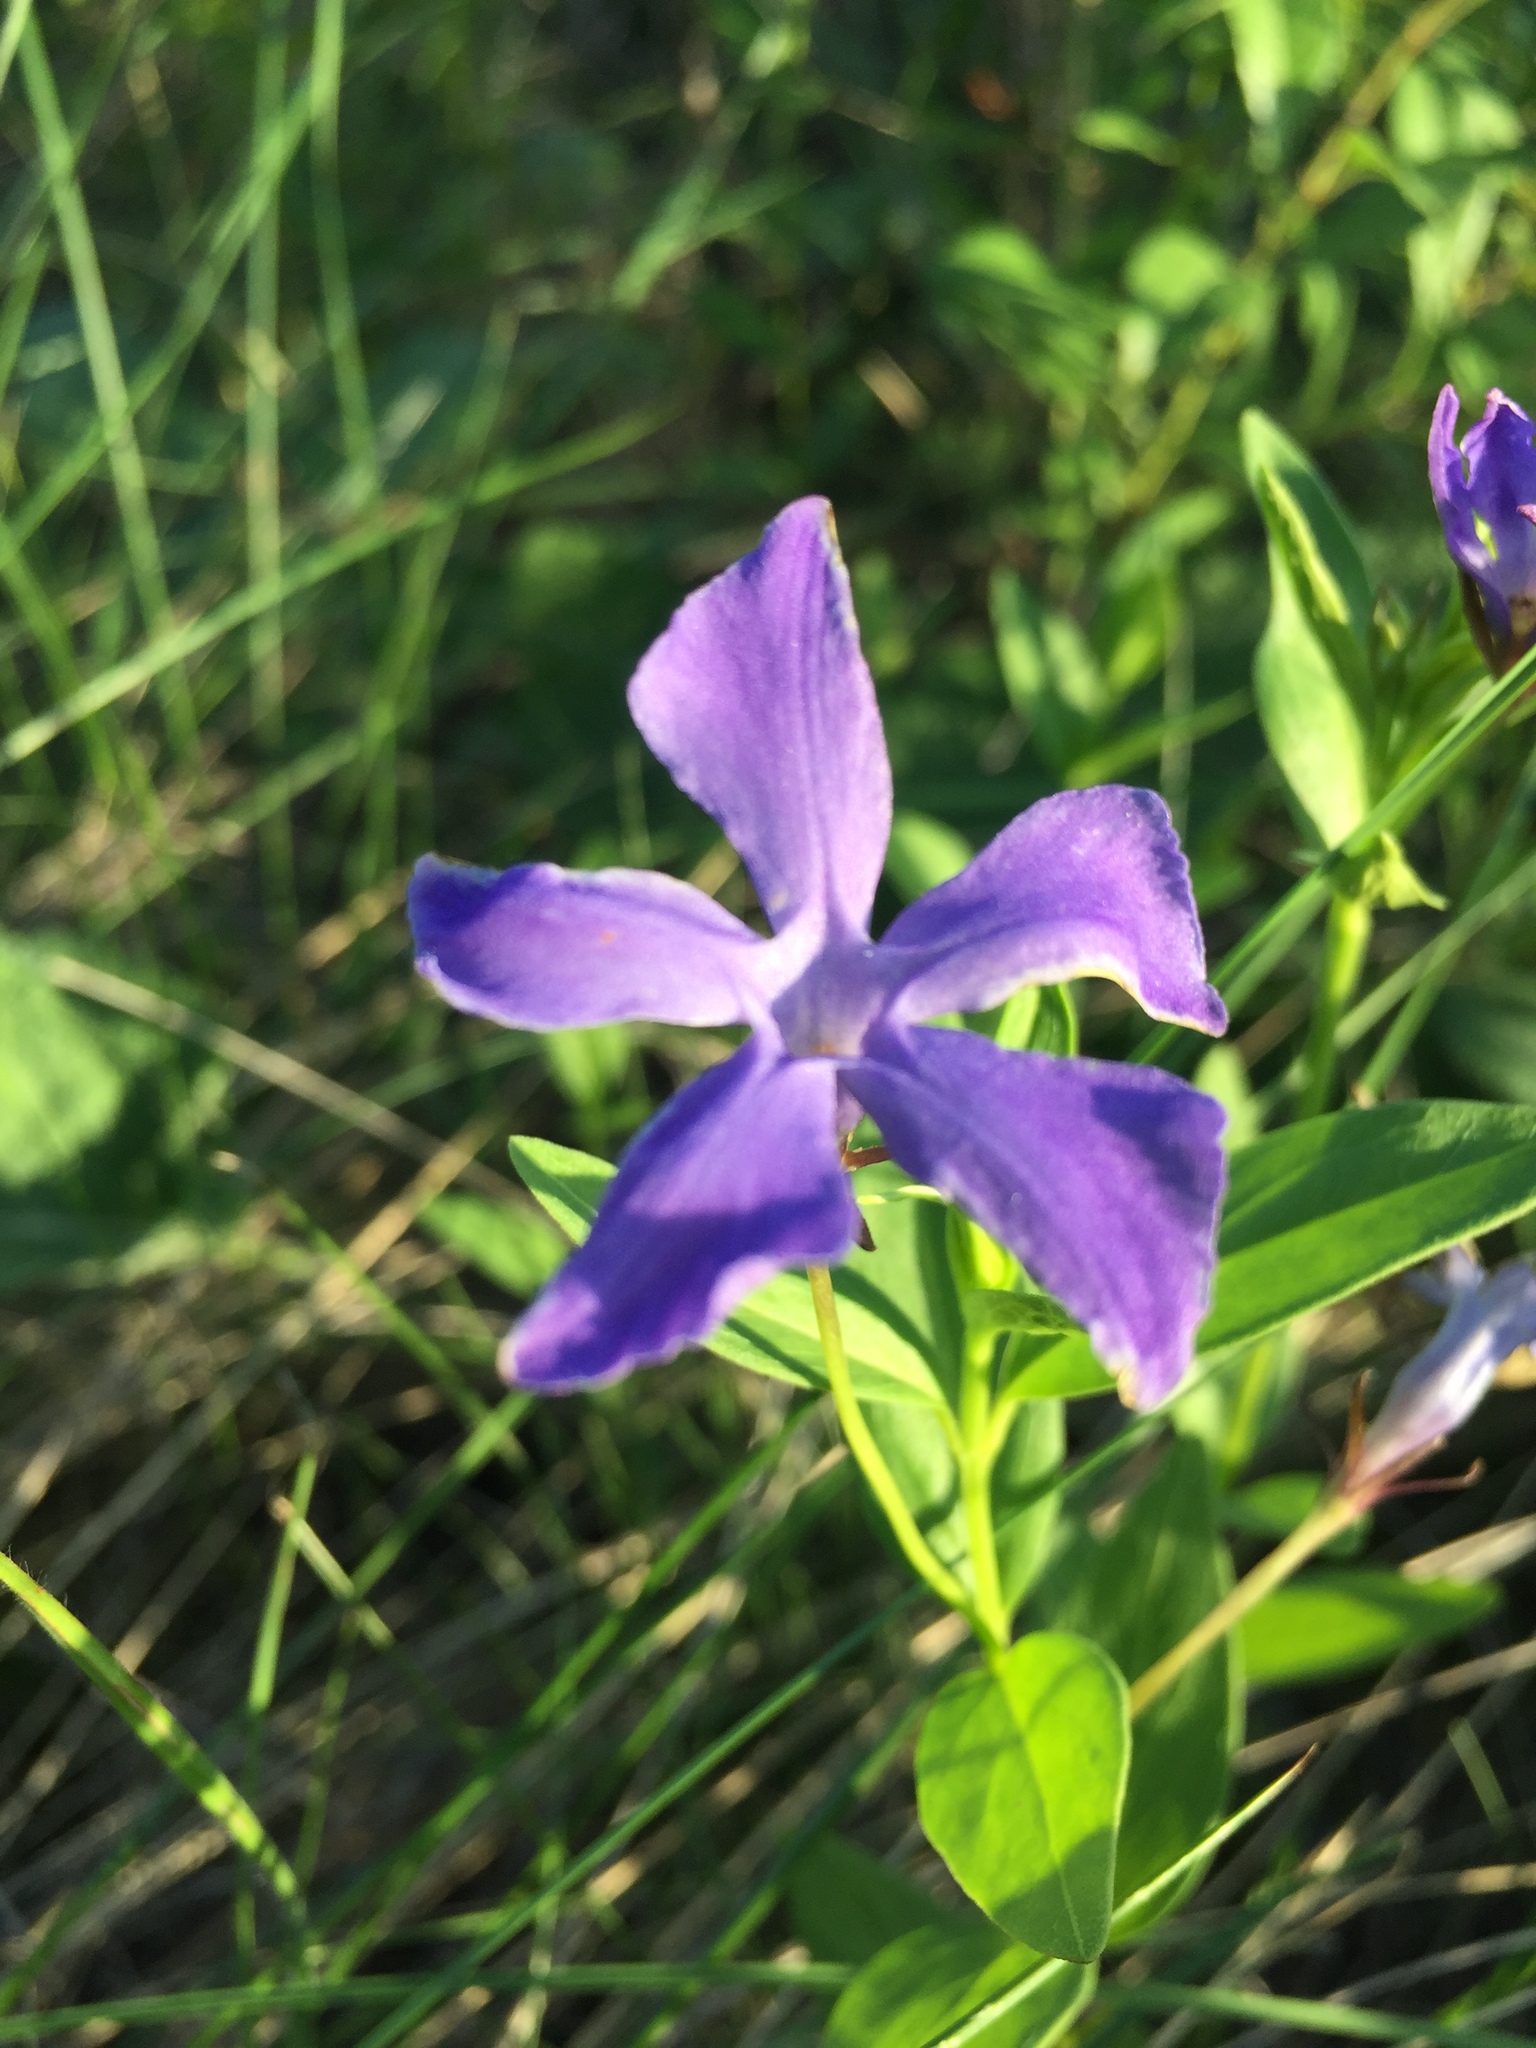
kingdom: Plantae
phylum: Tracheophyta
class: Magnoliopsida
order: Gentianales
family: Apocynaceae
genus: Vinca
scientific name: Vinca herbacea
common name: Herbaceous periwinkle
